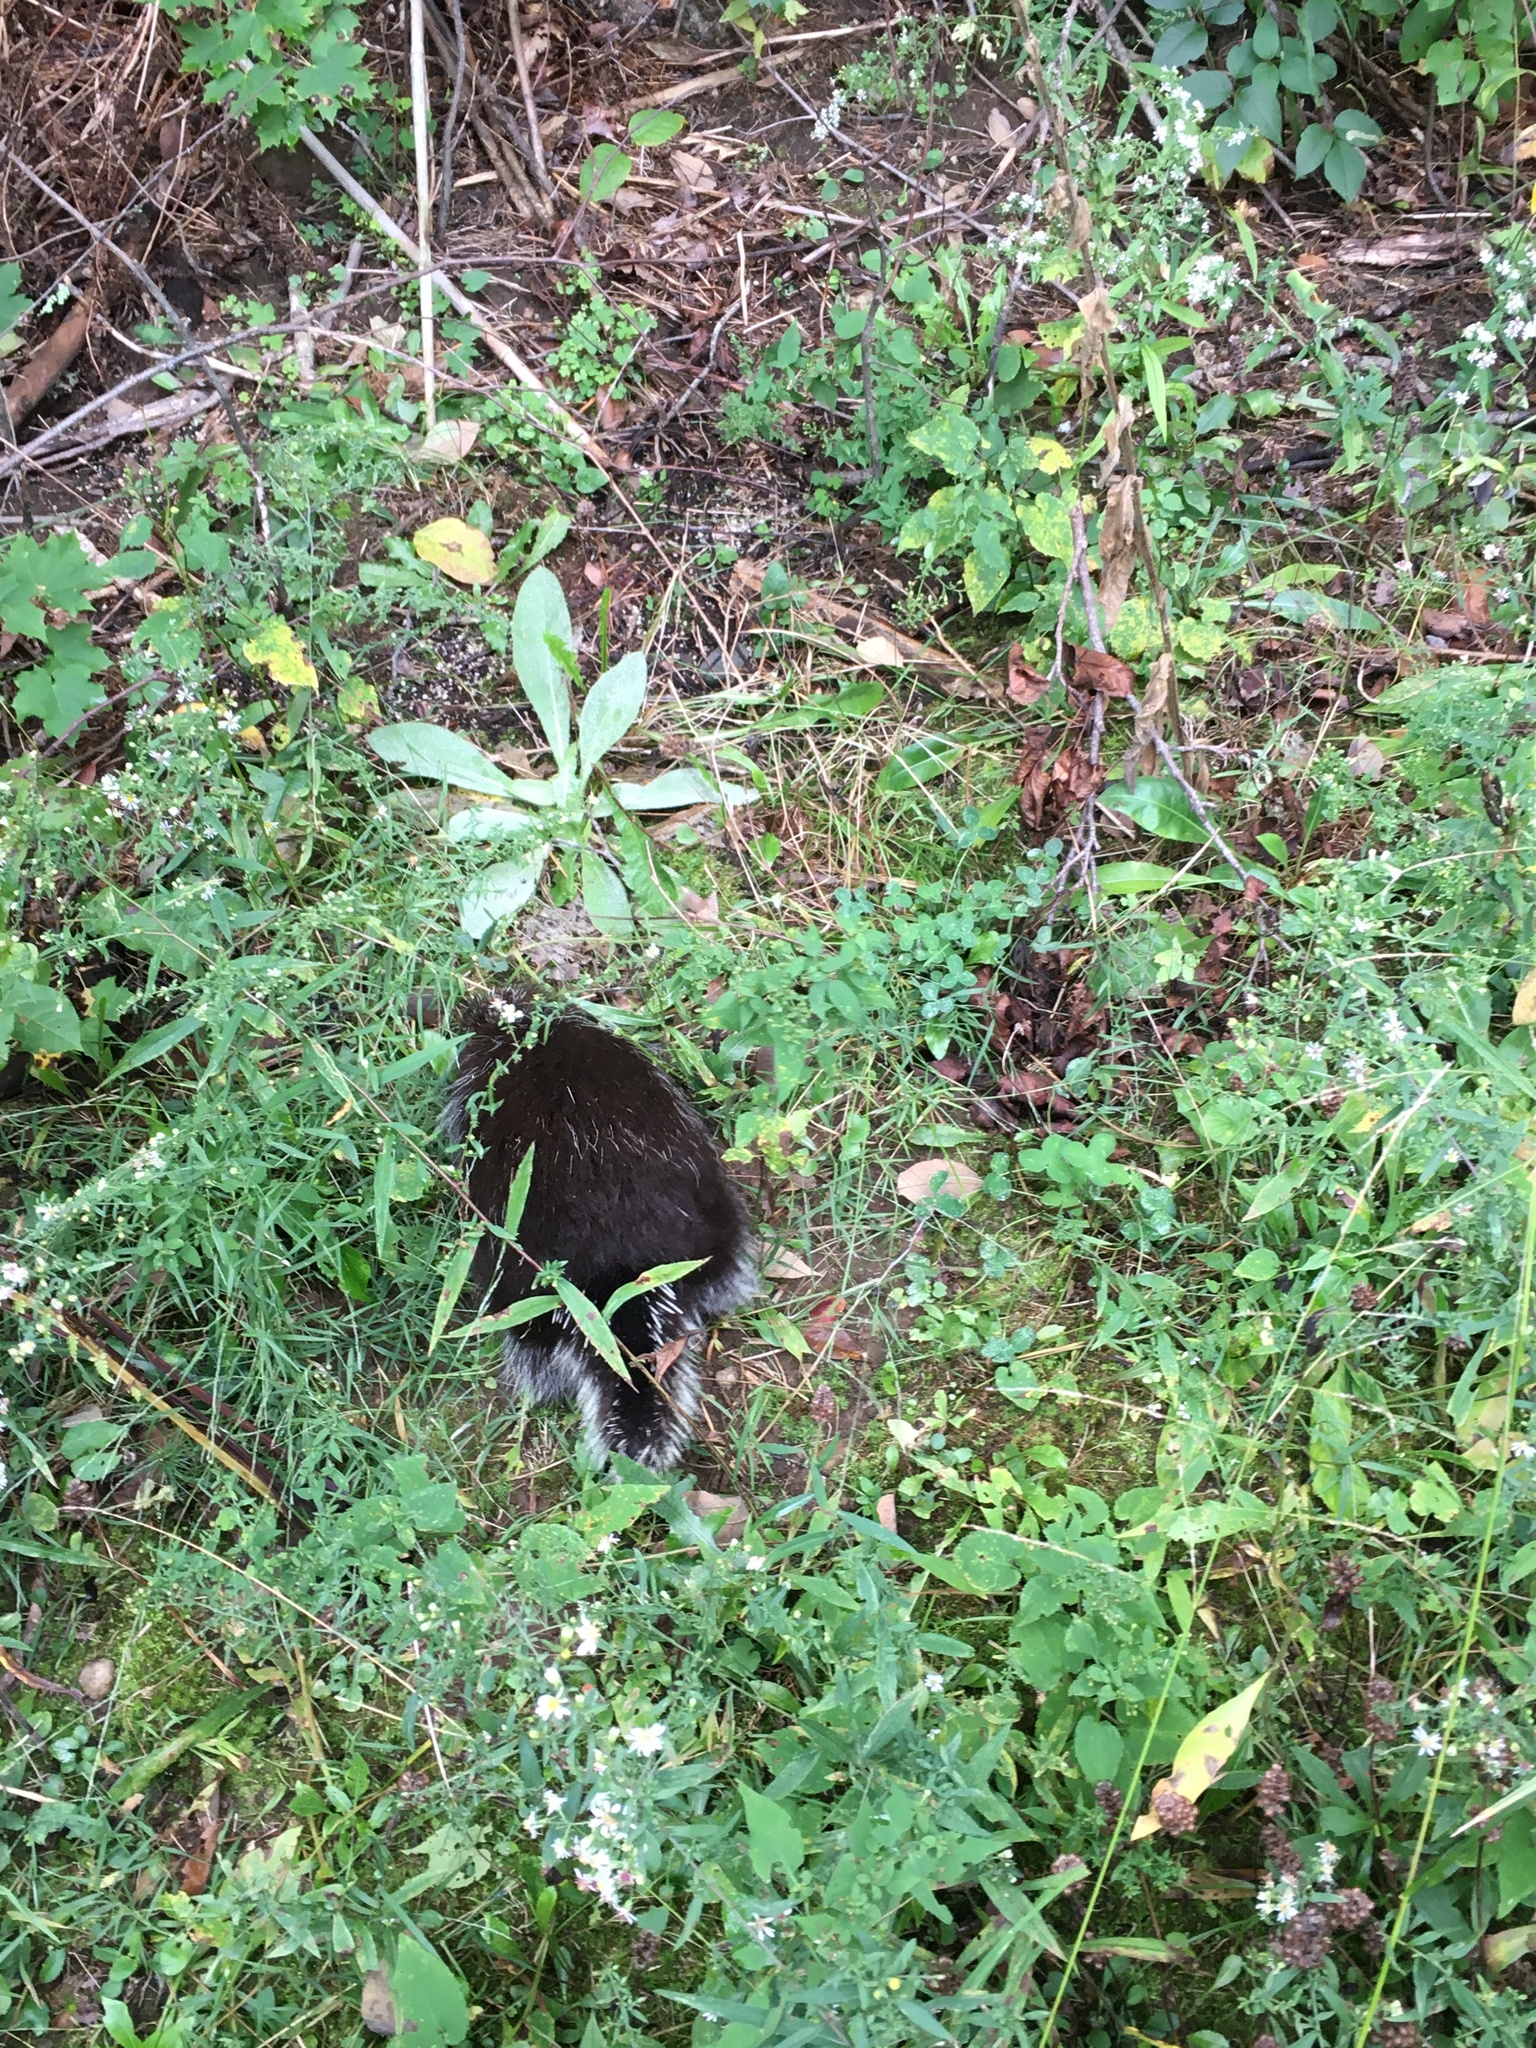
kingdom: Animalia
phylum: Chordata
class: Mammalia
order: Rodentia
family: Erethizontidae
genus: Erethizon
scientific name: Erethizon dorsatus
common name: North american porcupine
